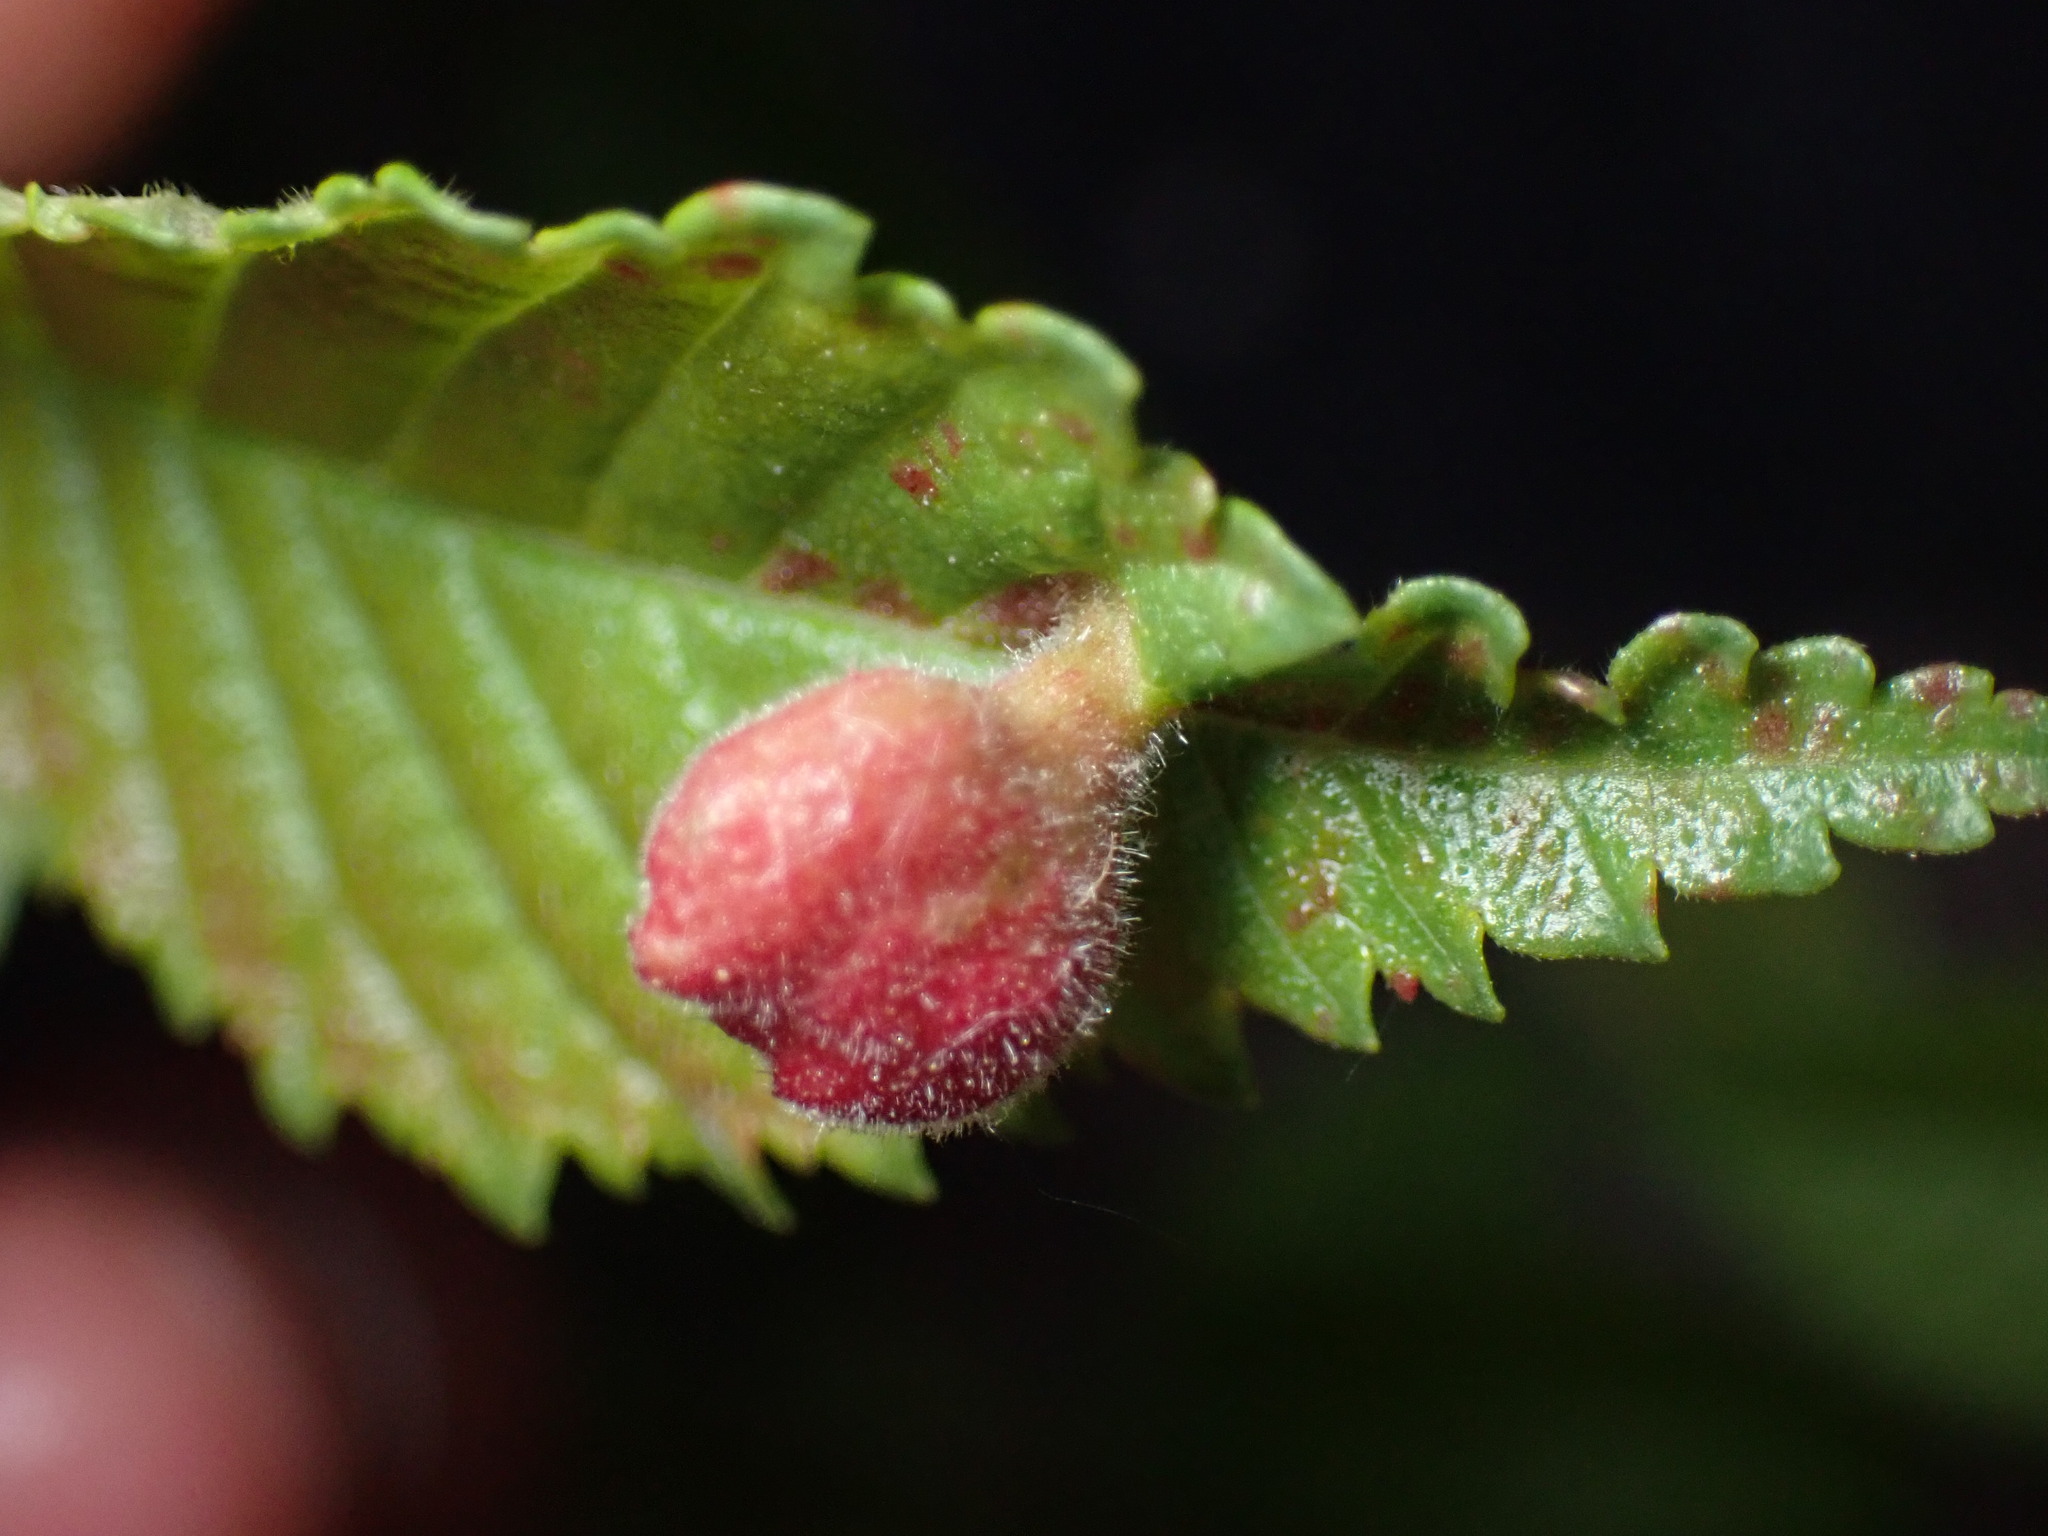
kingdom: Animalia
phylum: Arthropoda
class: Insecta
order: Hemiptera
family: Aphididae
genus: Tetraneura
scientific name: Tetraneura nigriabdominalis
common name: Aphid
